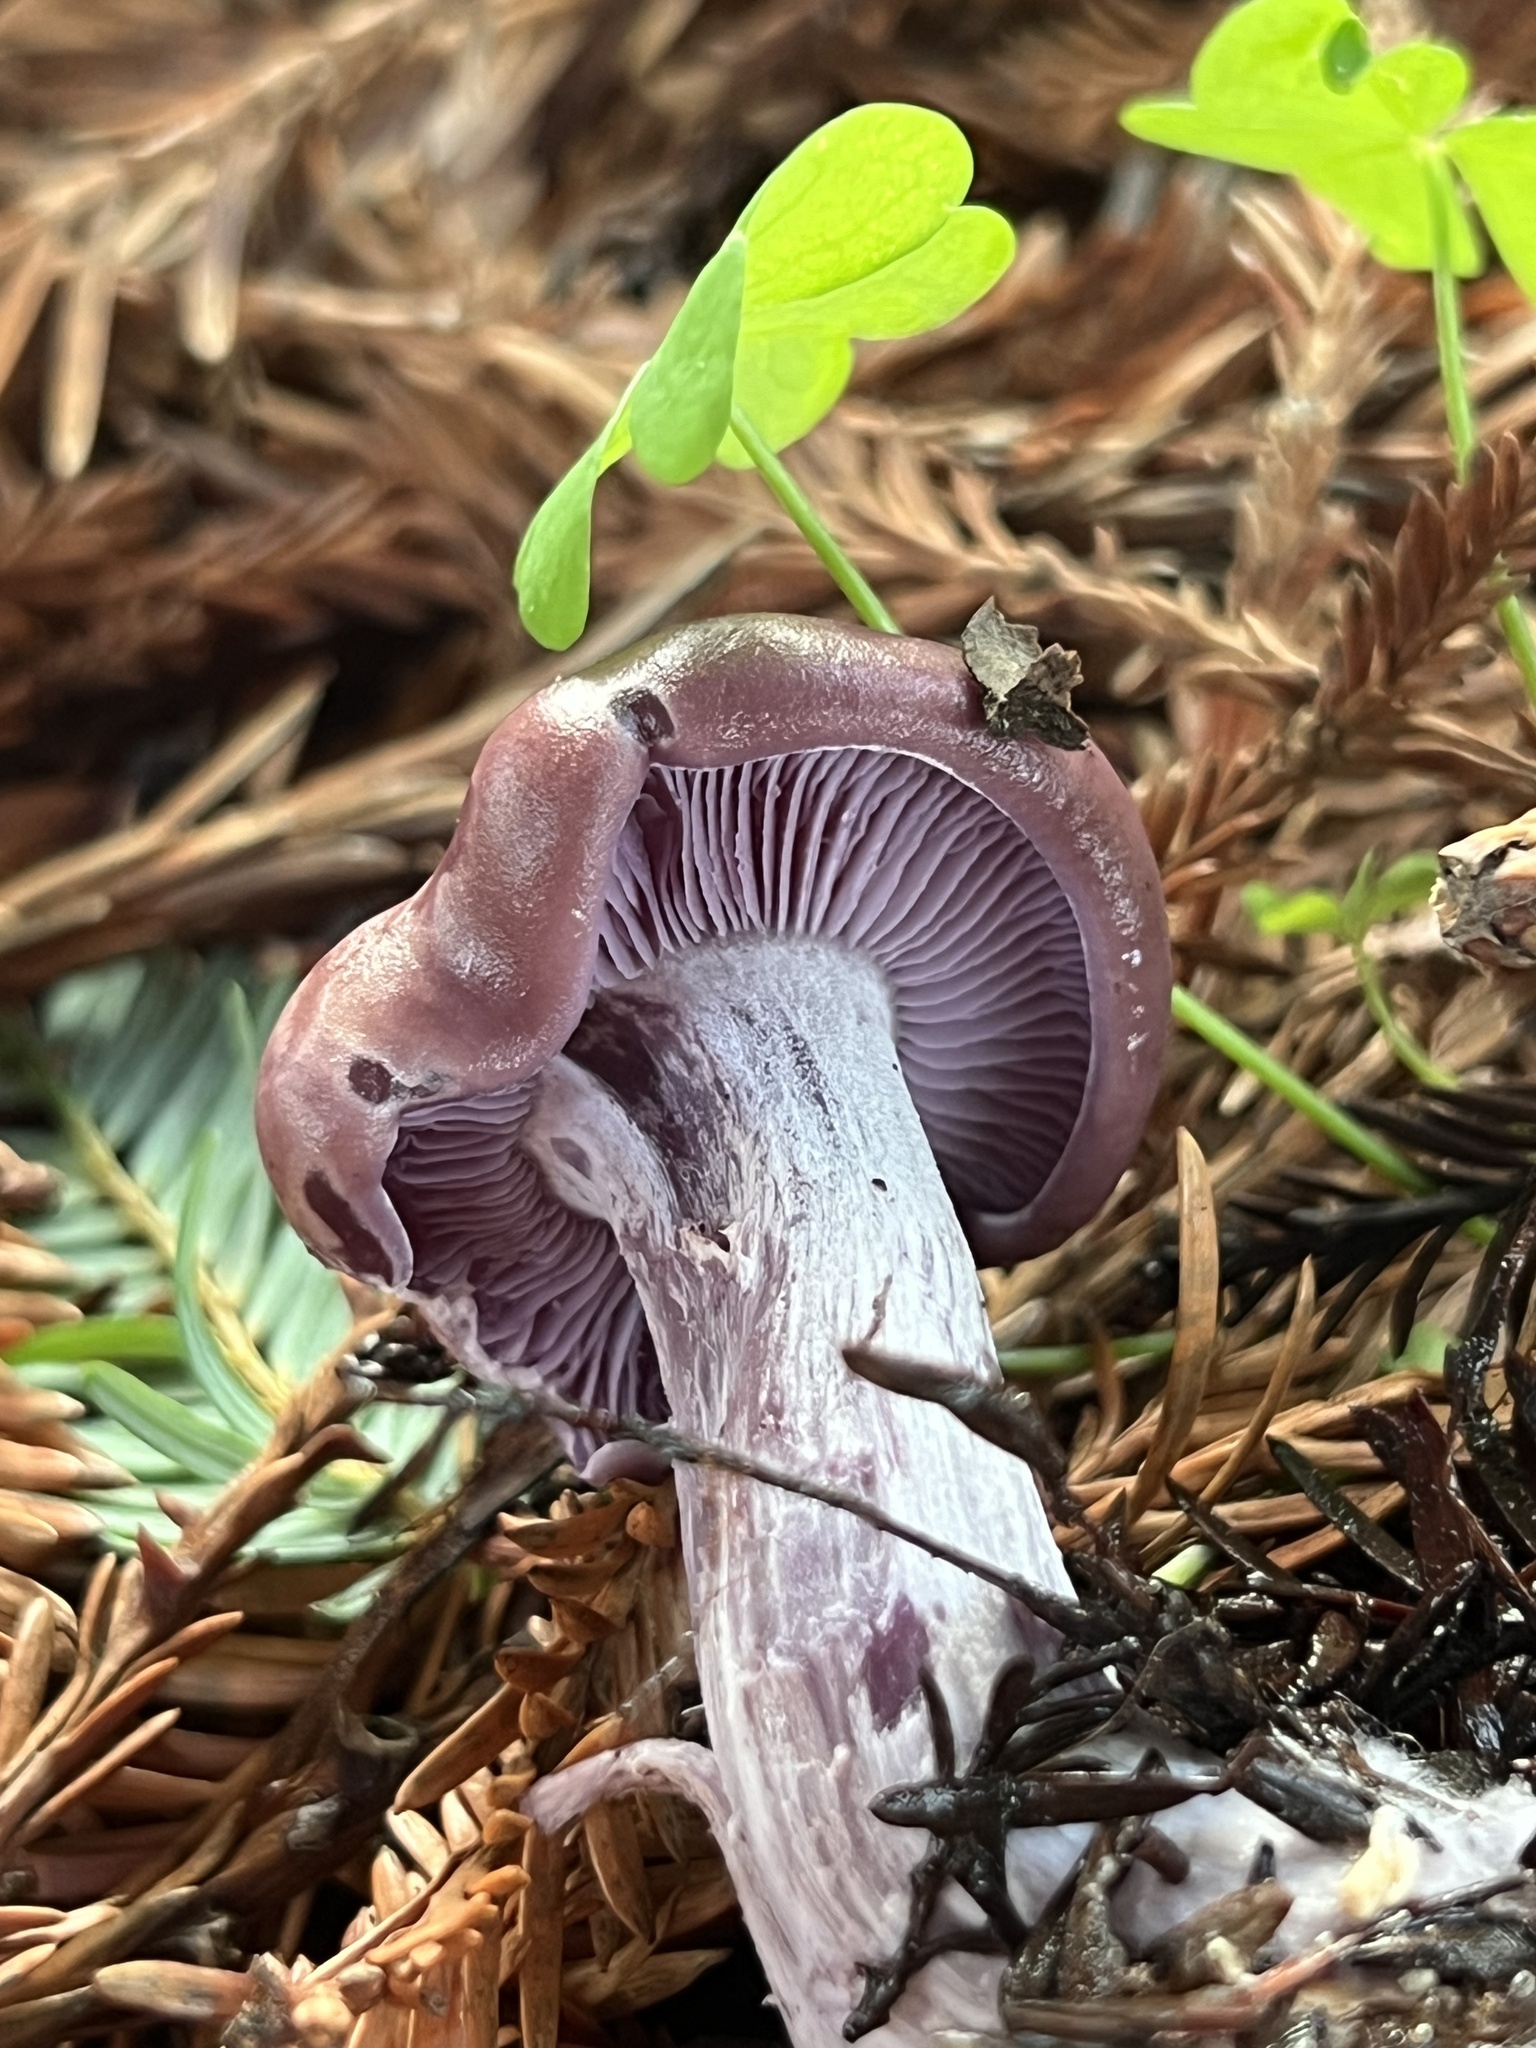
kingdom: Fungi
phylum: Basidiomycota
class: Agaricomycetes
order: Agaricales
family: Tricholomataceae
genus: Collybia
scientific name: Collybia
